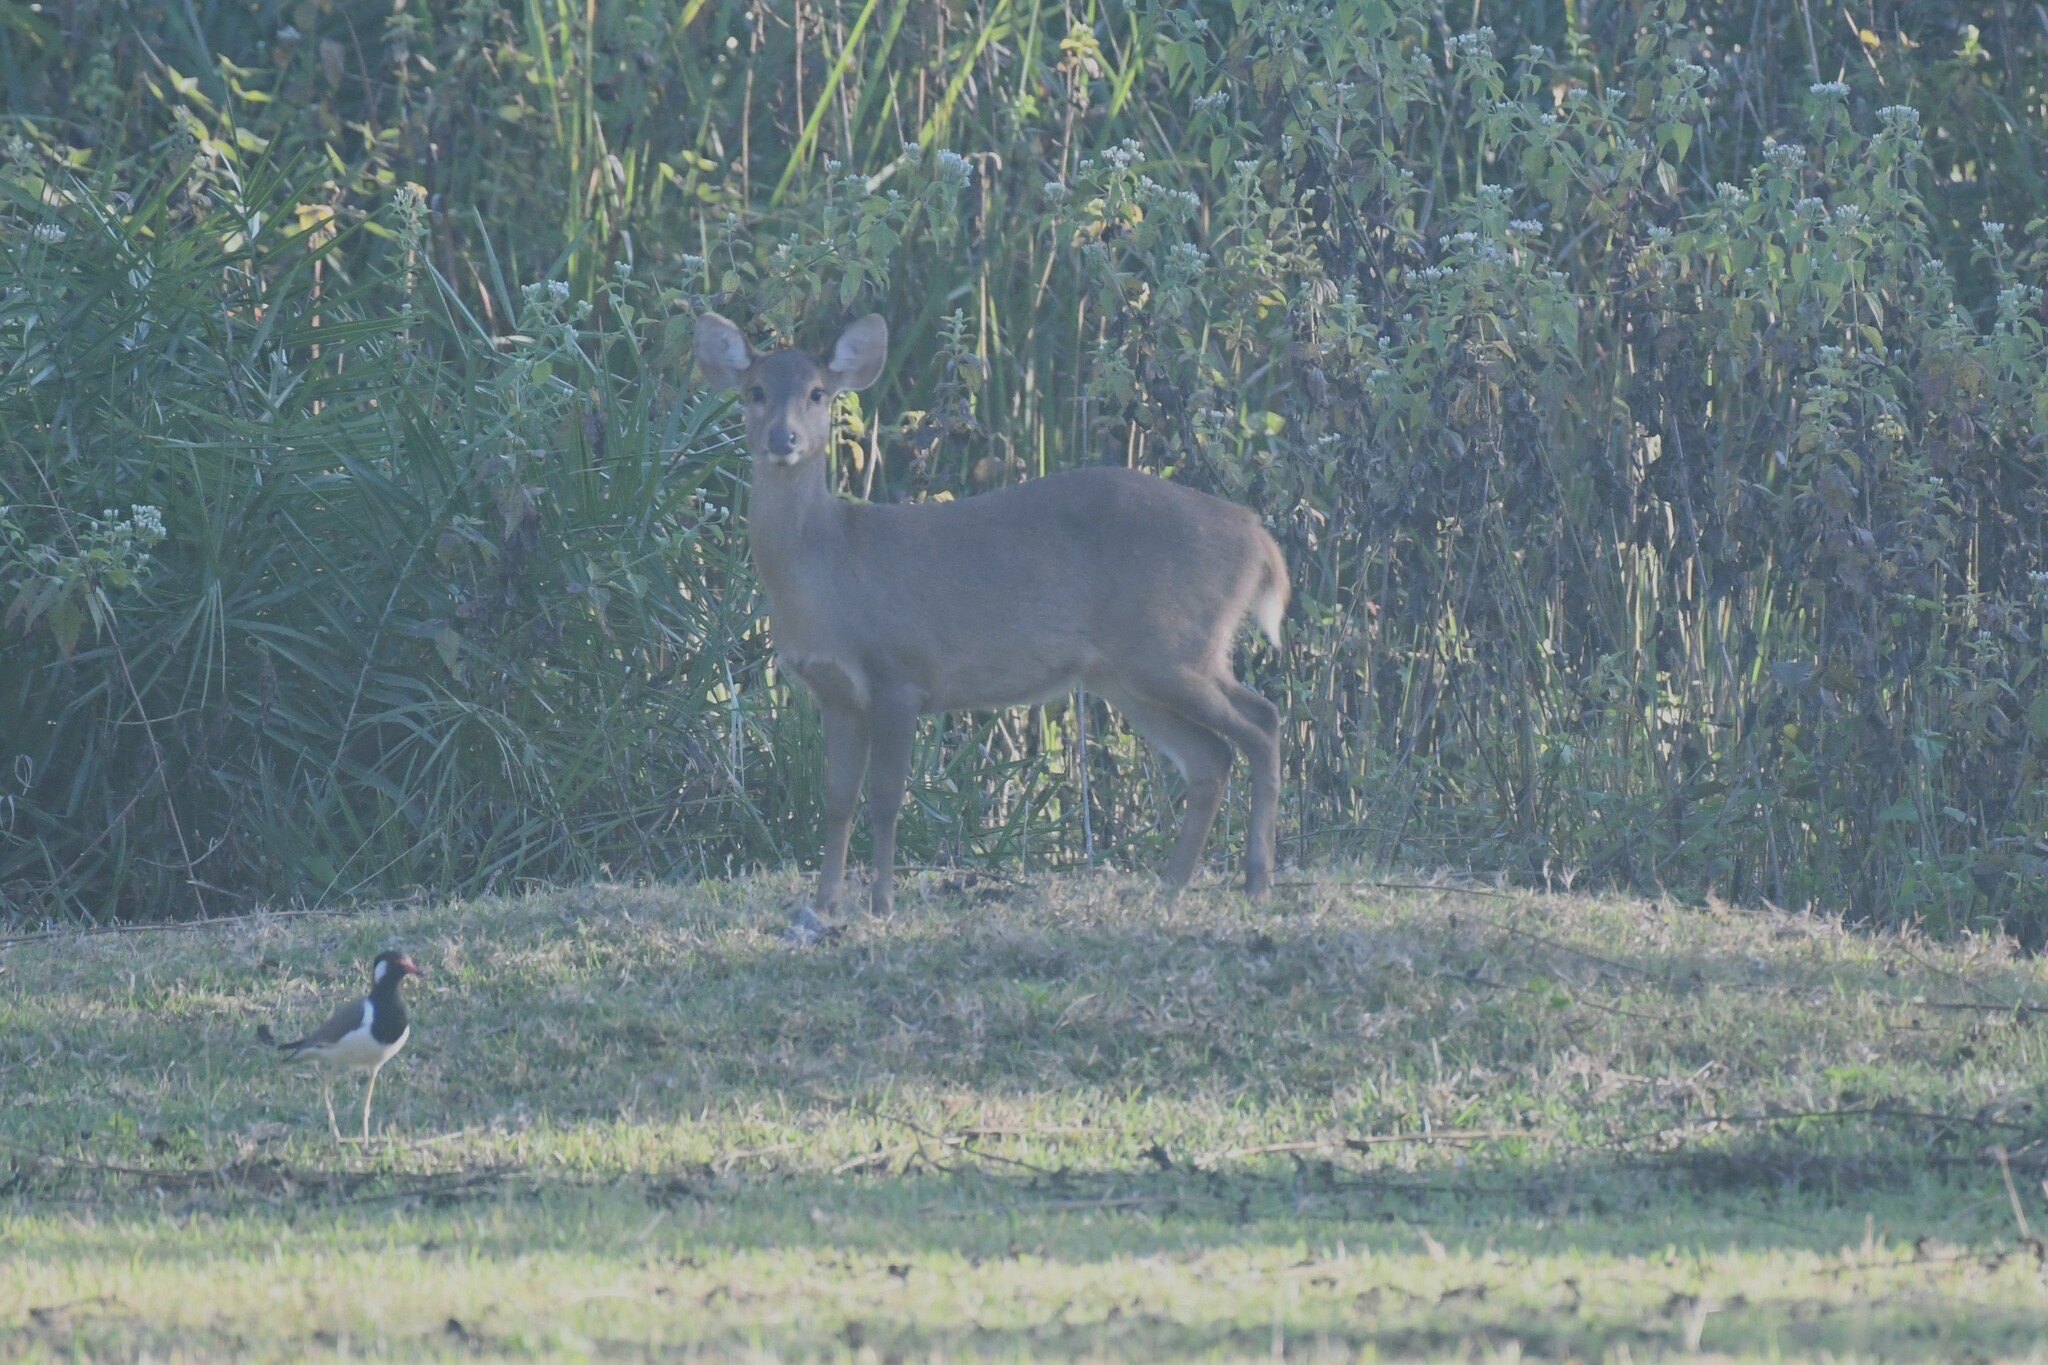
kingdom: Animalia
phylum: Chordata
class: Mammalia
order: Artiodactyla
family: Cervidae
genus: Axis
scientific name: Axis porcinus
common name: Hog deer
